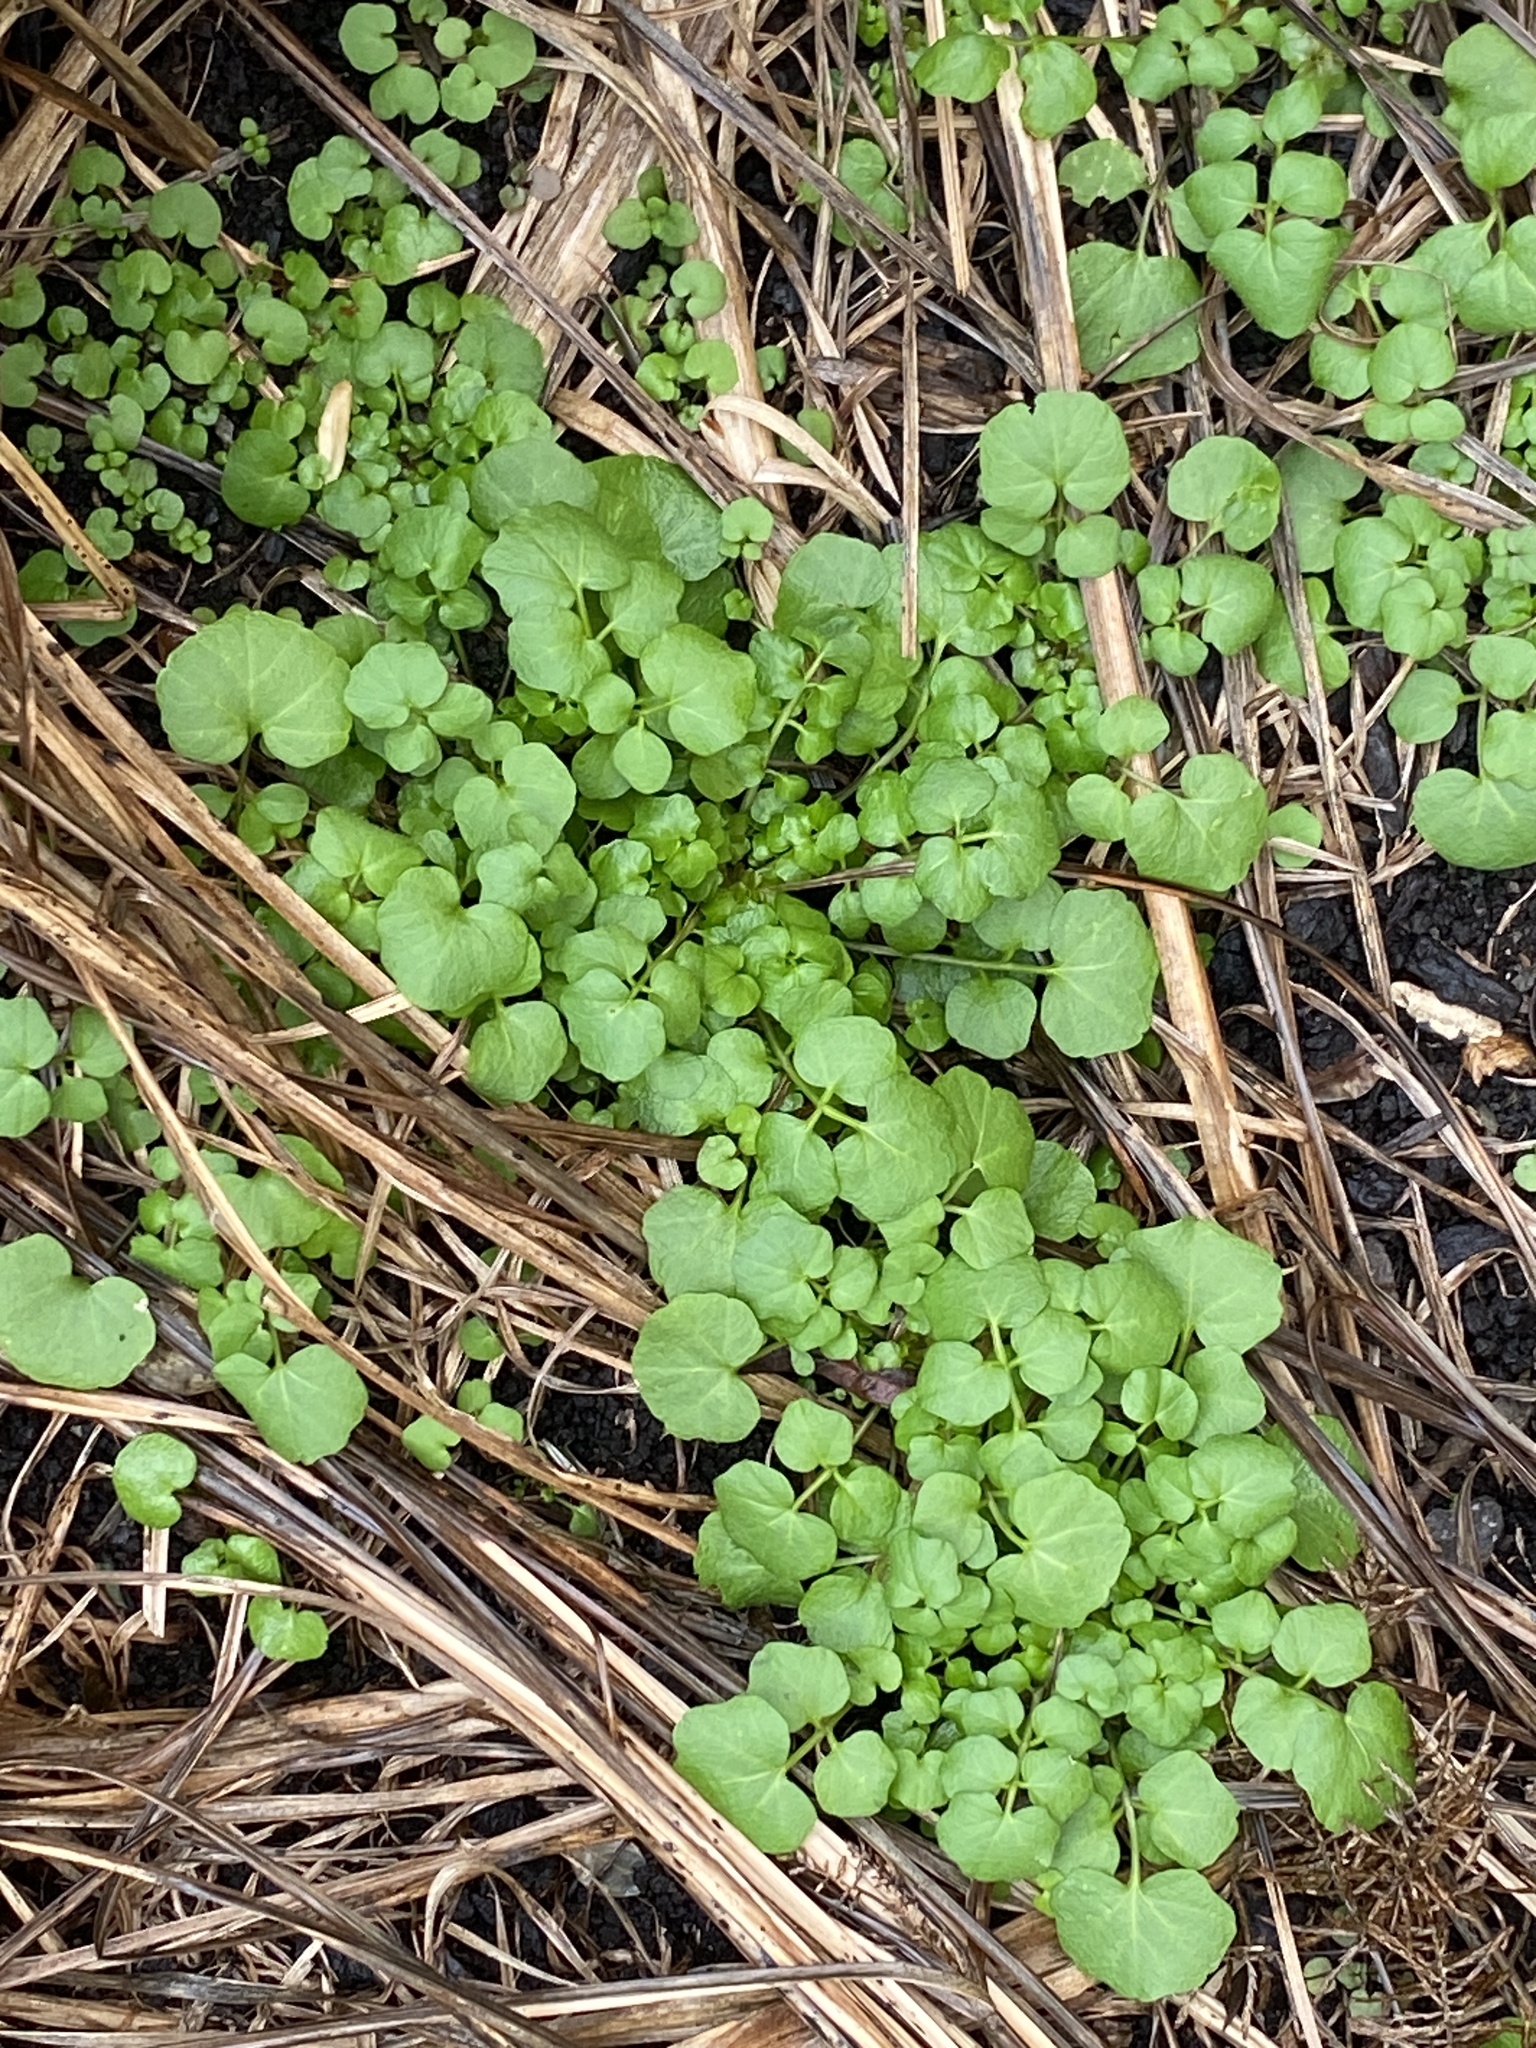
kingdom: Plantae
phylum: Tracheophyta
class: Magnoliopsida
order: Brassicales
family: Brassicaceae
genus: Cardamine
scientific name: Cardamine hirsuta
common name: Hairy bittercress
